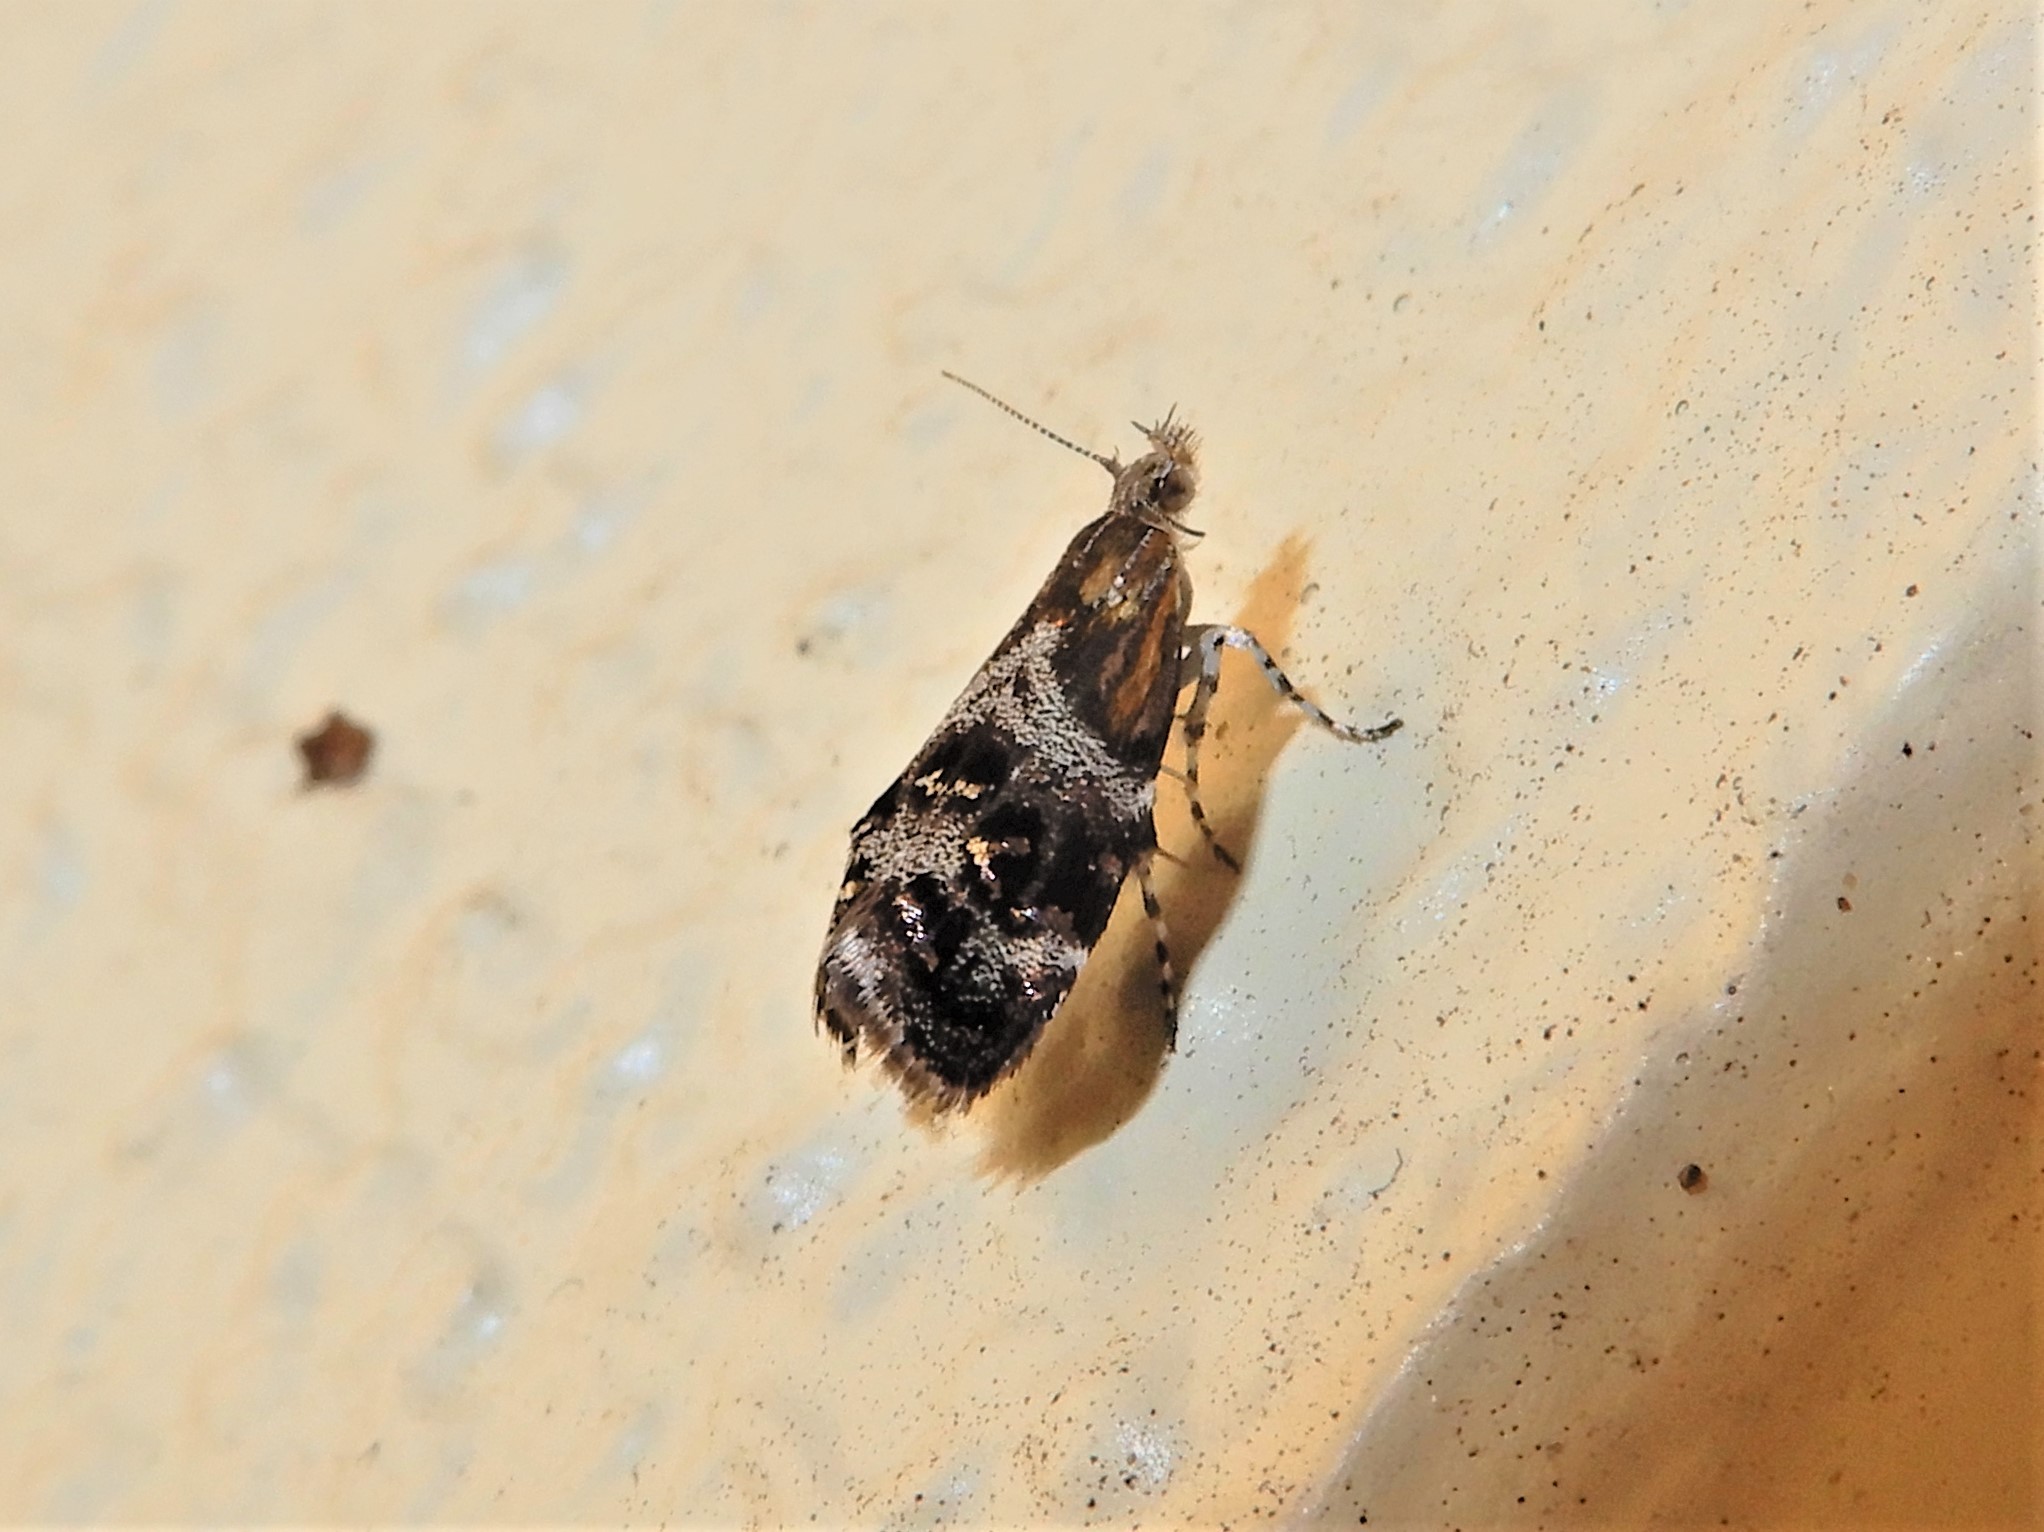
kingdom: Animalia
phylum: Arthropoda
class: Insecta
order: Lepidoptera
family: Choreutidae
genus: Tebenna
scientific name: Tebenna micalis
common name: Vagrant twitcher
